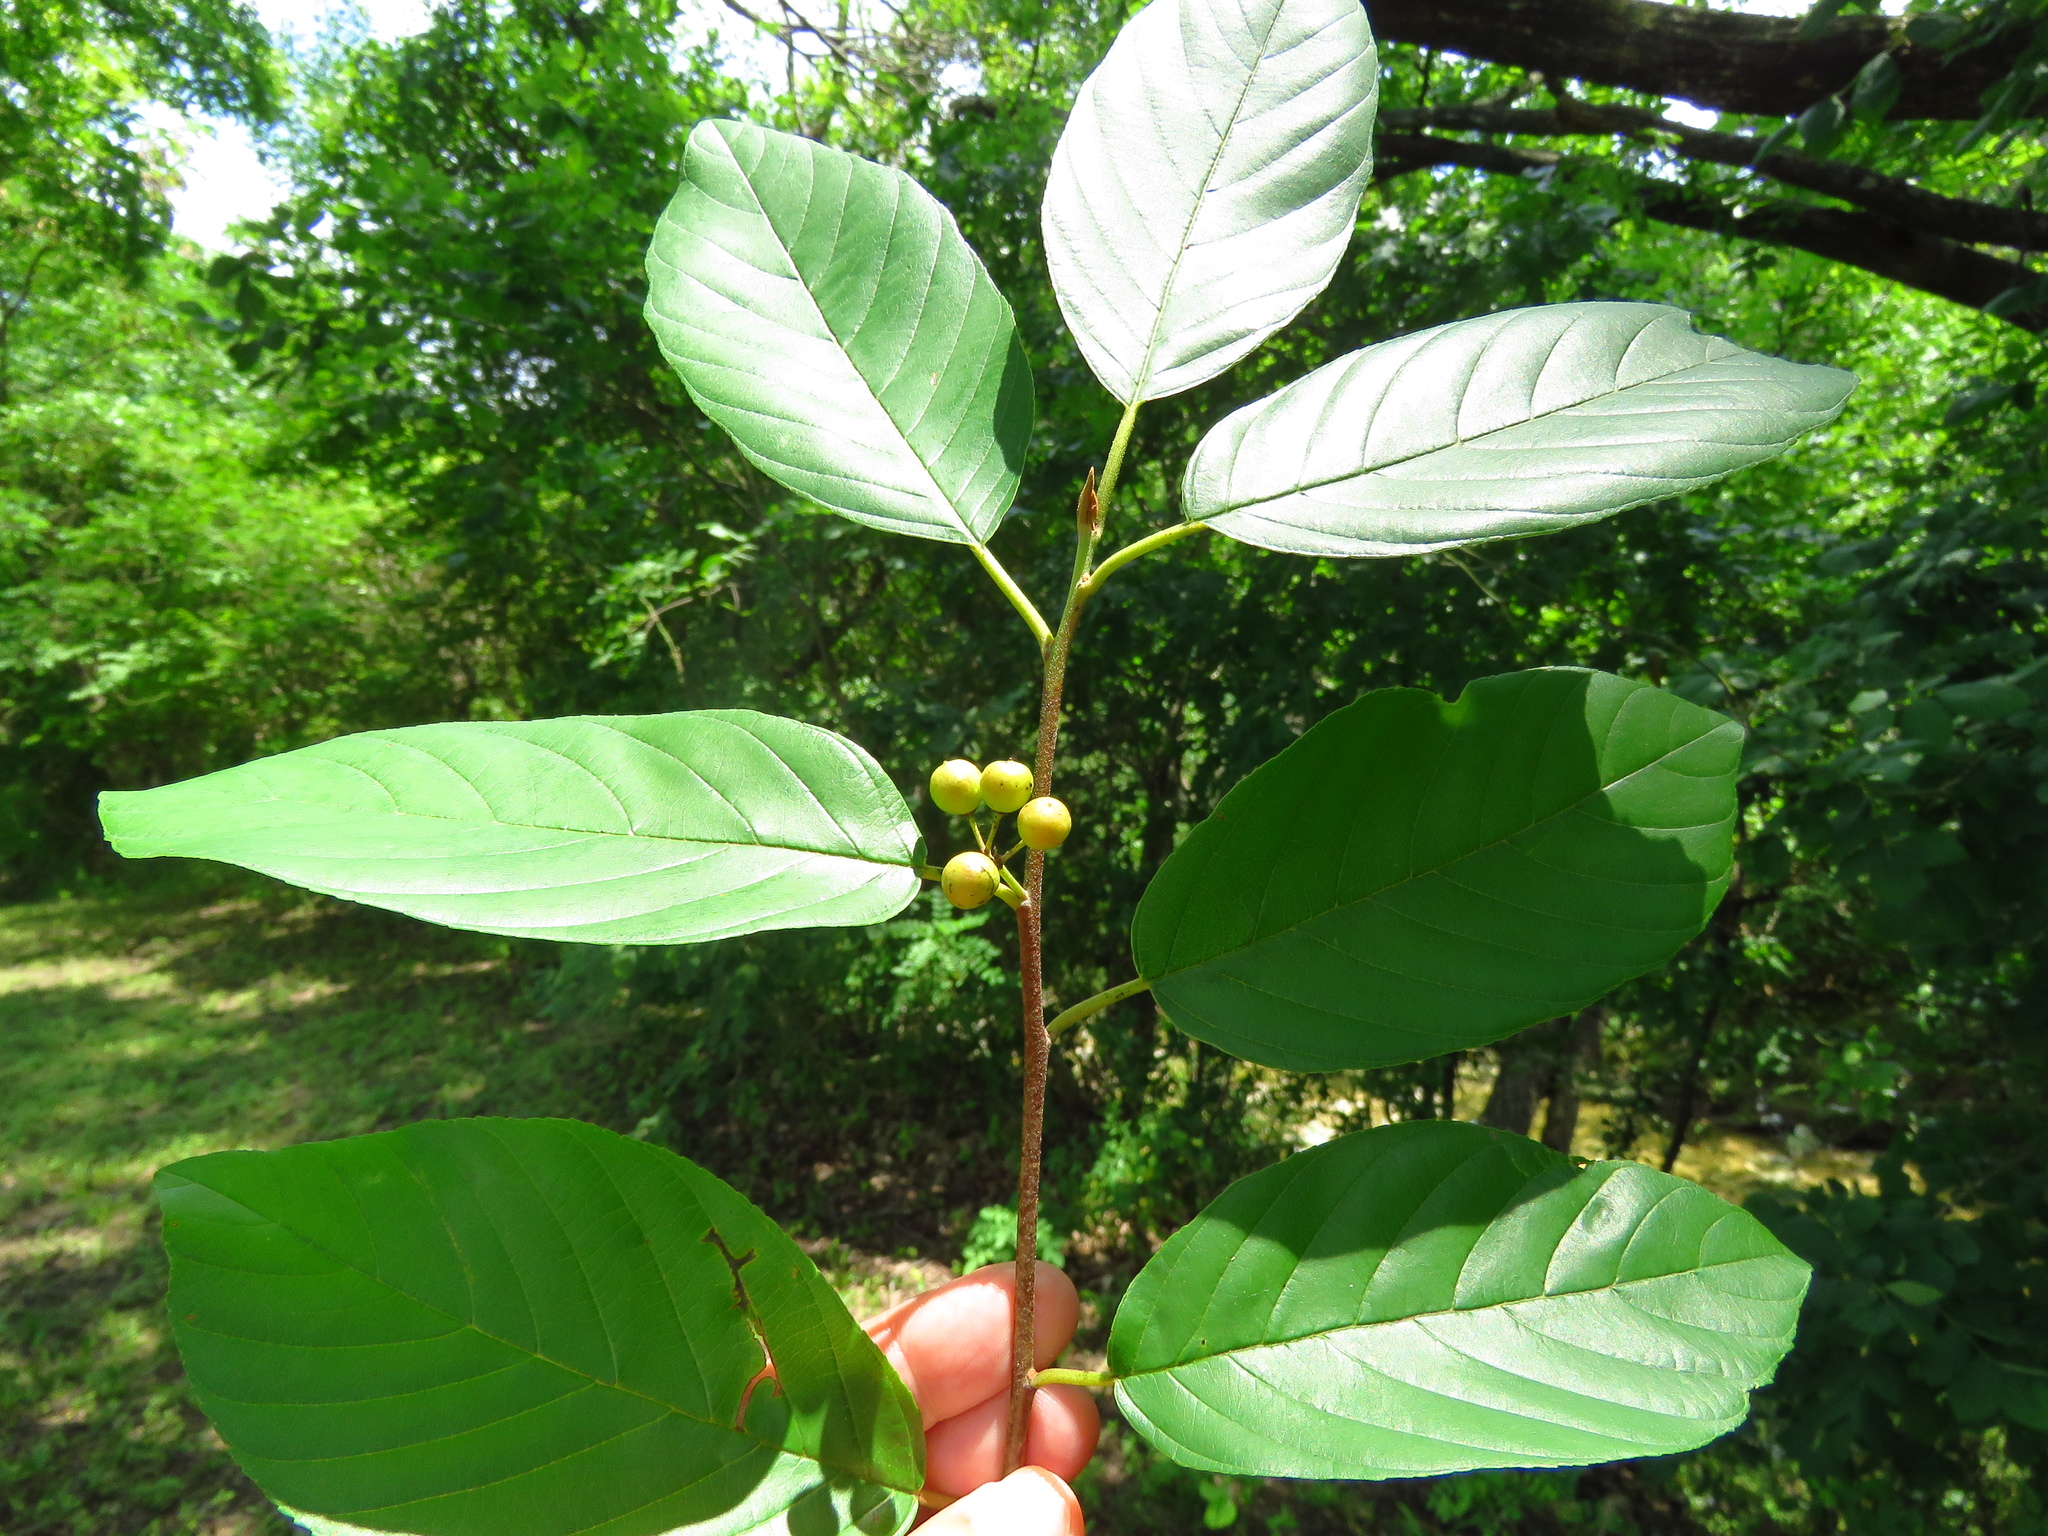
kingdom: Plantae
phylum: Tracheophyta
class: Magnoliopsida
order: Rosales
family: Rhamnaceae
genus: Frangula
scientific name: Frangula caroliniana
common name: Carolina buckthorn
